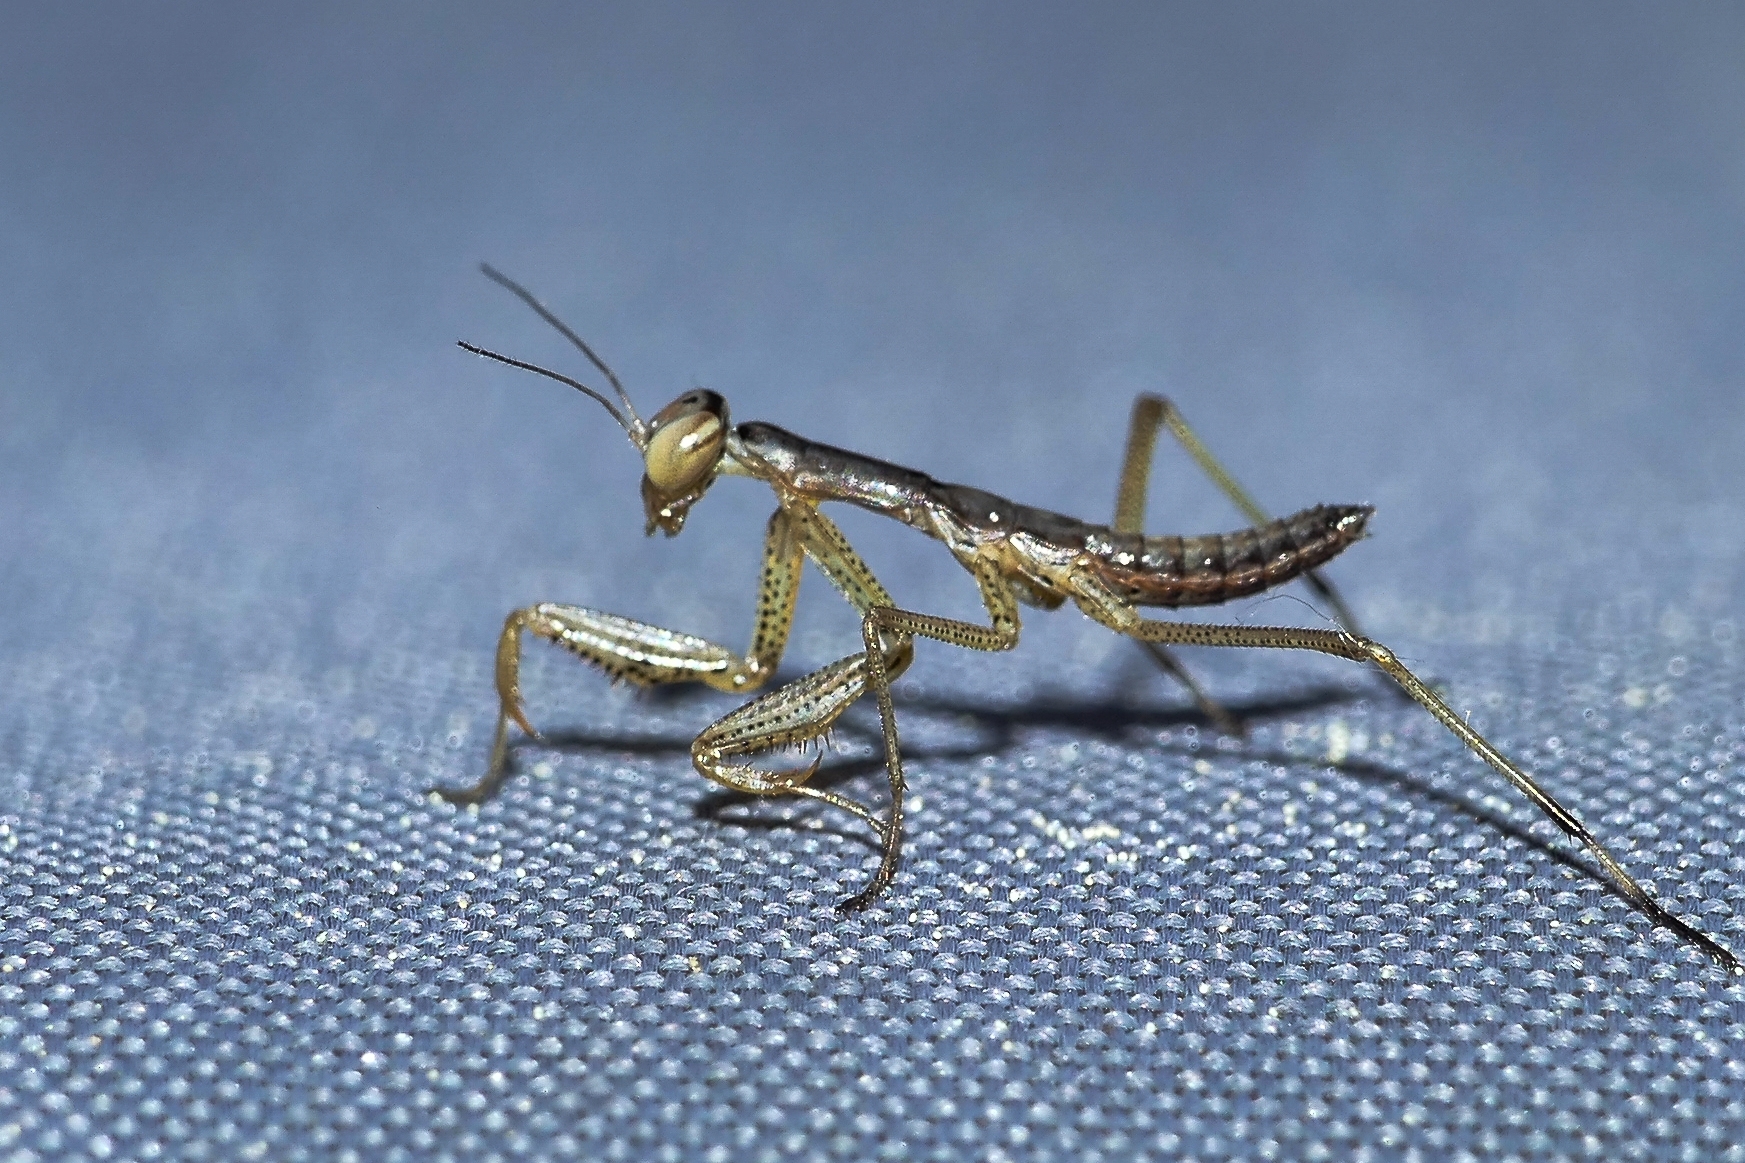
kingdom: Animalia
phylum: Arthropoda
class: Insecta
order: Mantodea
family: Mantidae
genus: Mantis
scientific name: Mantis religiosa
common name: Praying mantis
